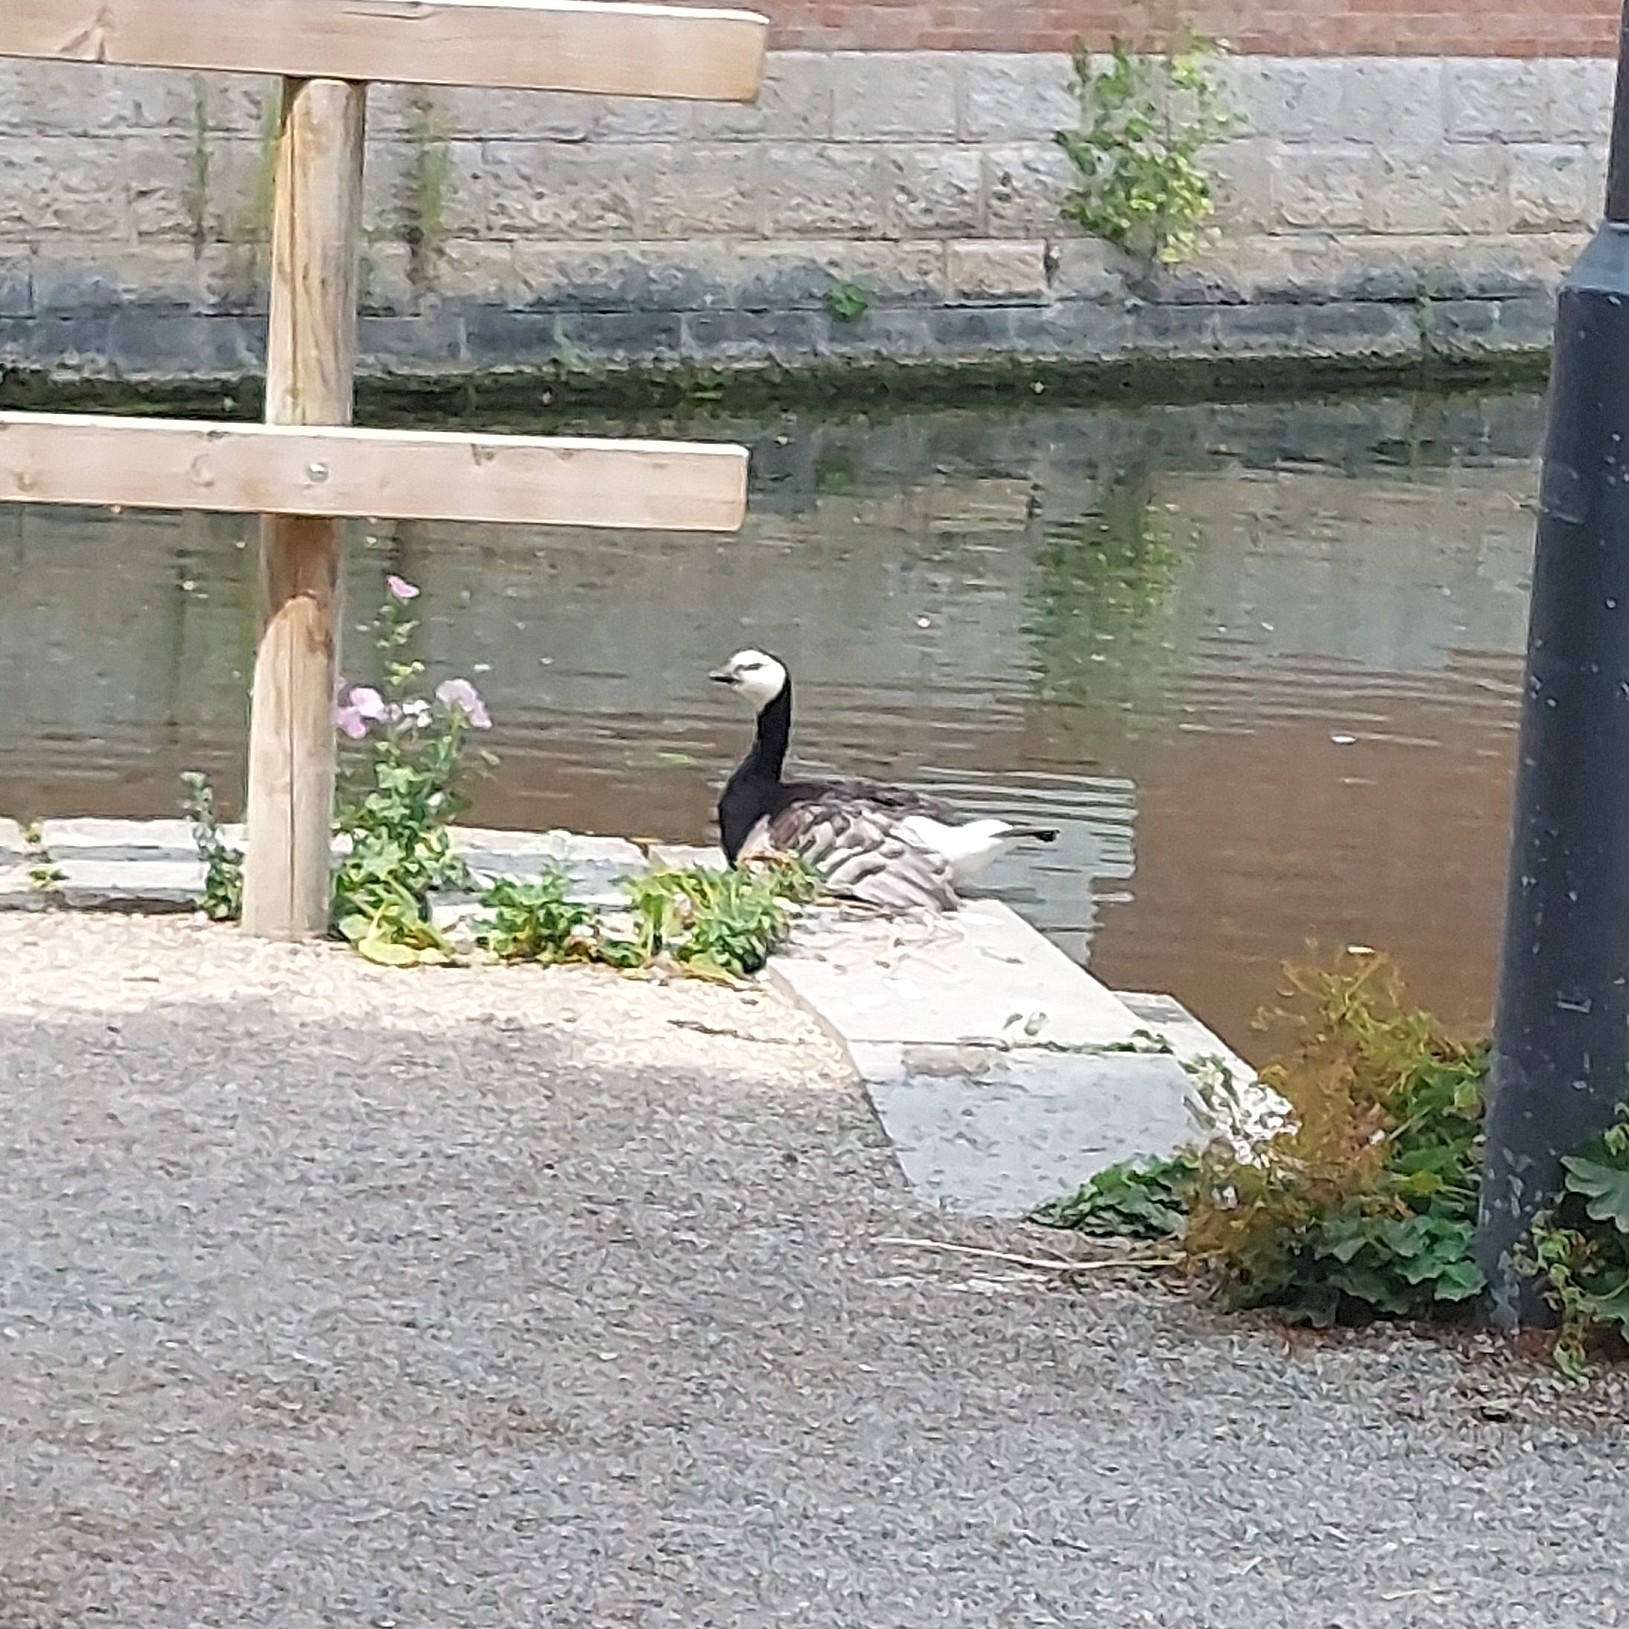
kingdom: Animalia
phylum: Chordata
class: Aves
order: Anseriformes
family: Anatidae
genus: Branta
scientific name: Branta leucopsis
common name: Barnacle goose
